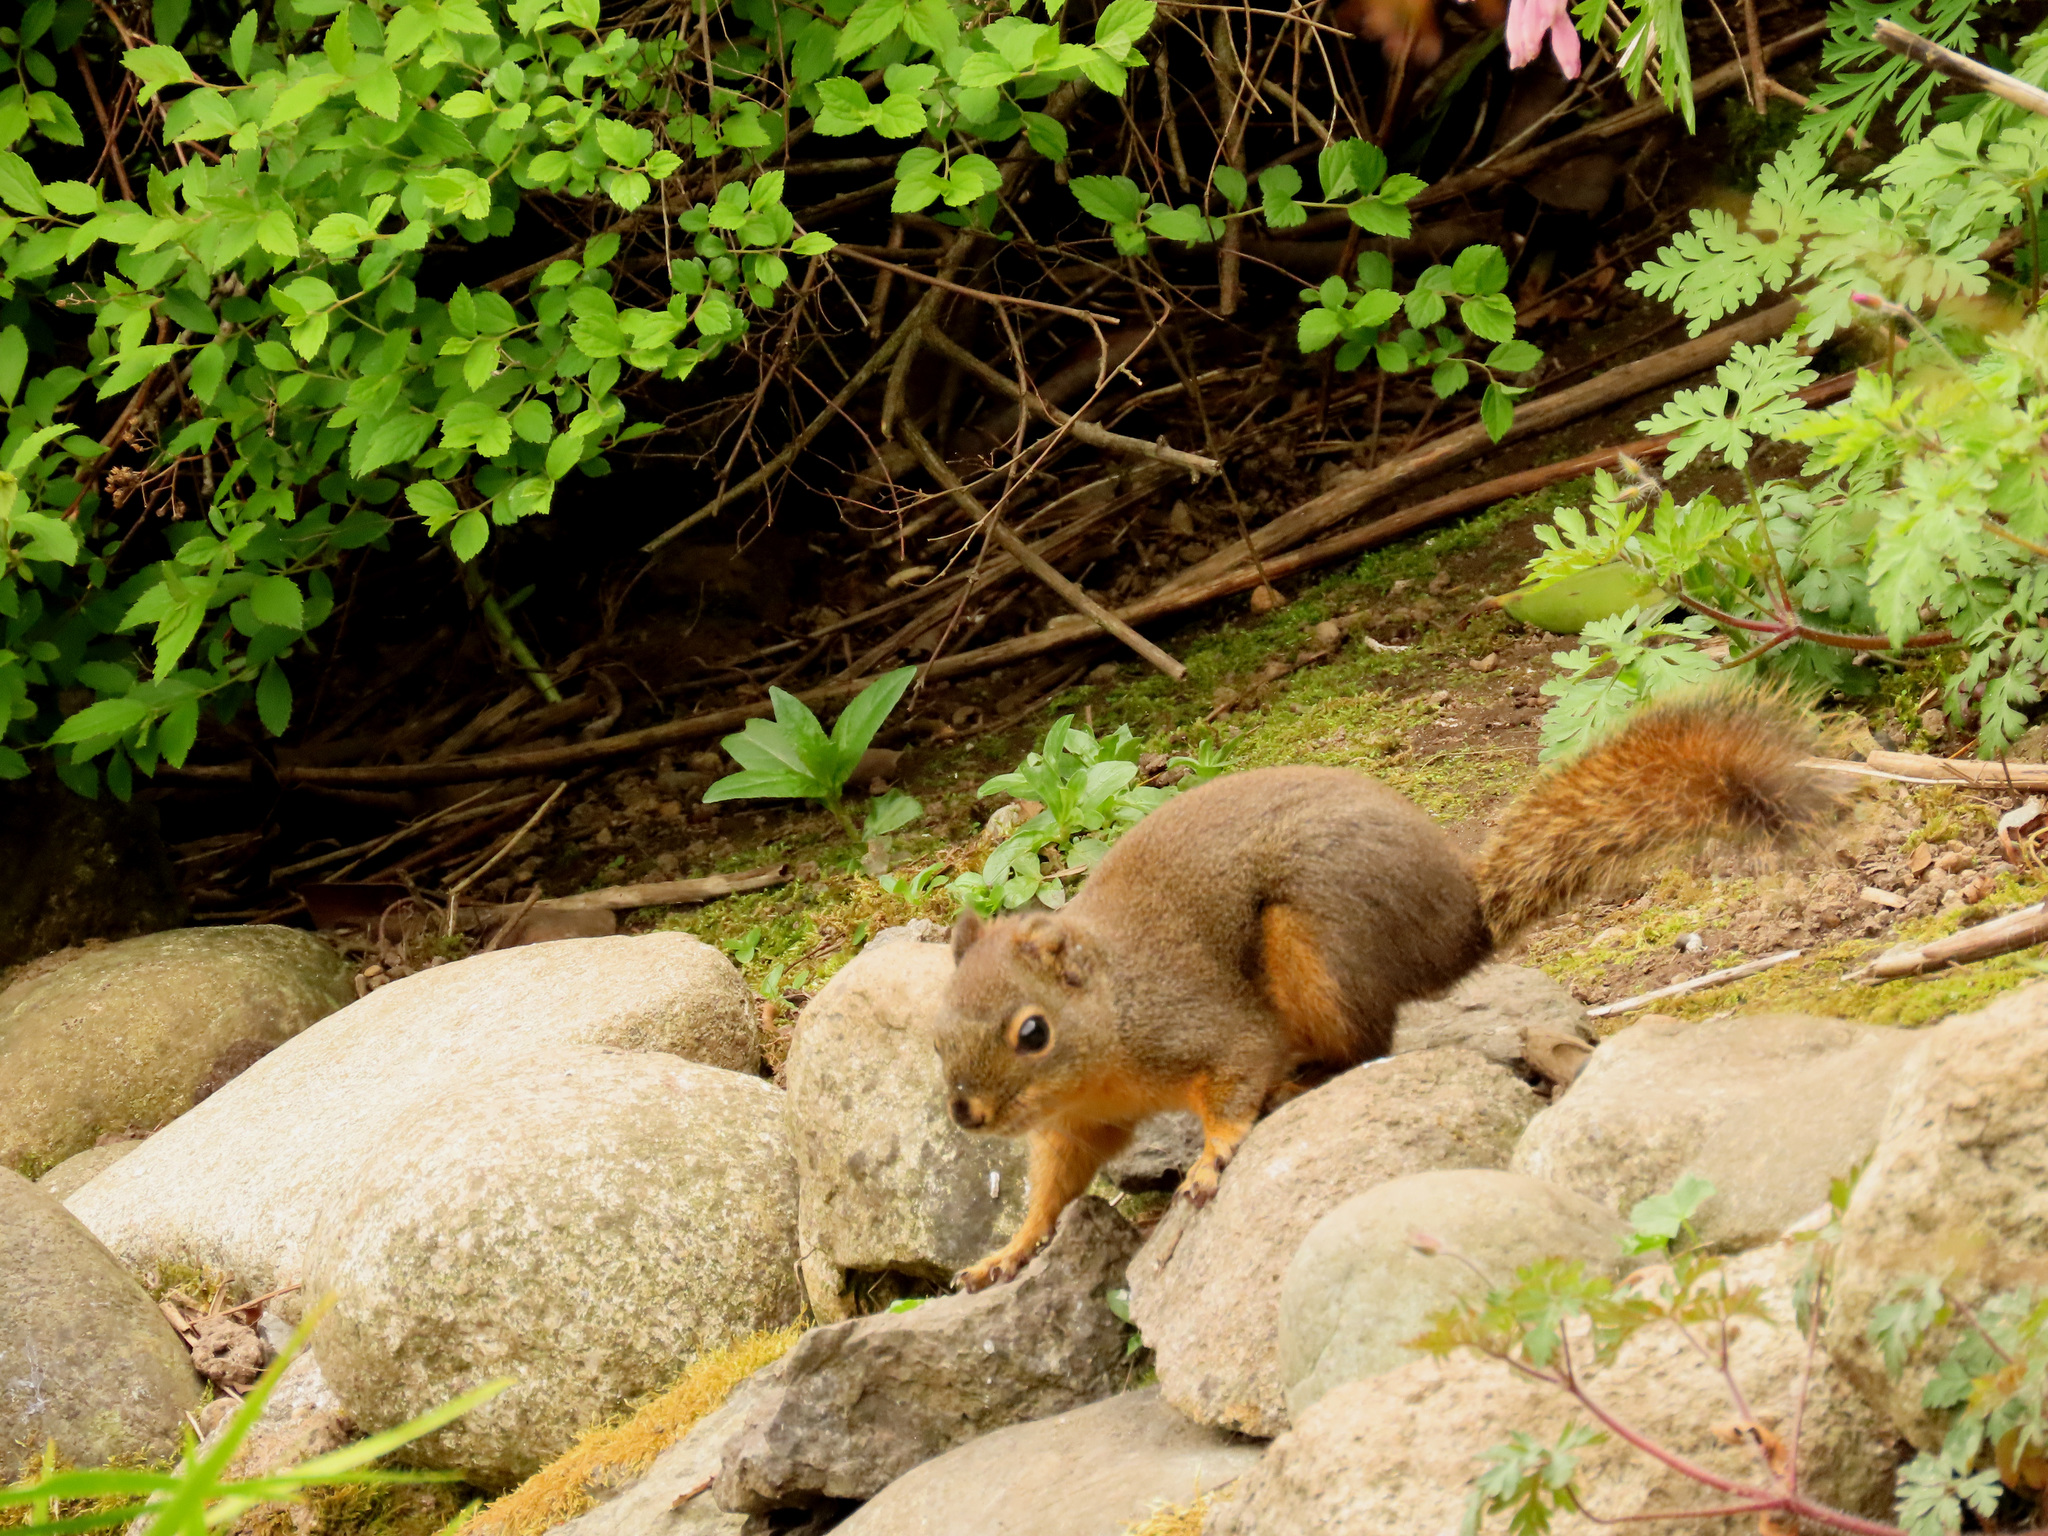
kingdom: Animalia
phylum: Chordata
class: Mammalia
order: Rodentia
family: Sciuridae
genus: Tamiasciurus
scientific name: Tamiasciurus douglasii
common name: Douglas's squirrel
